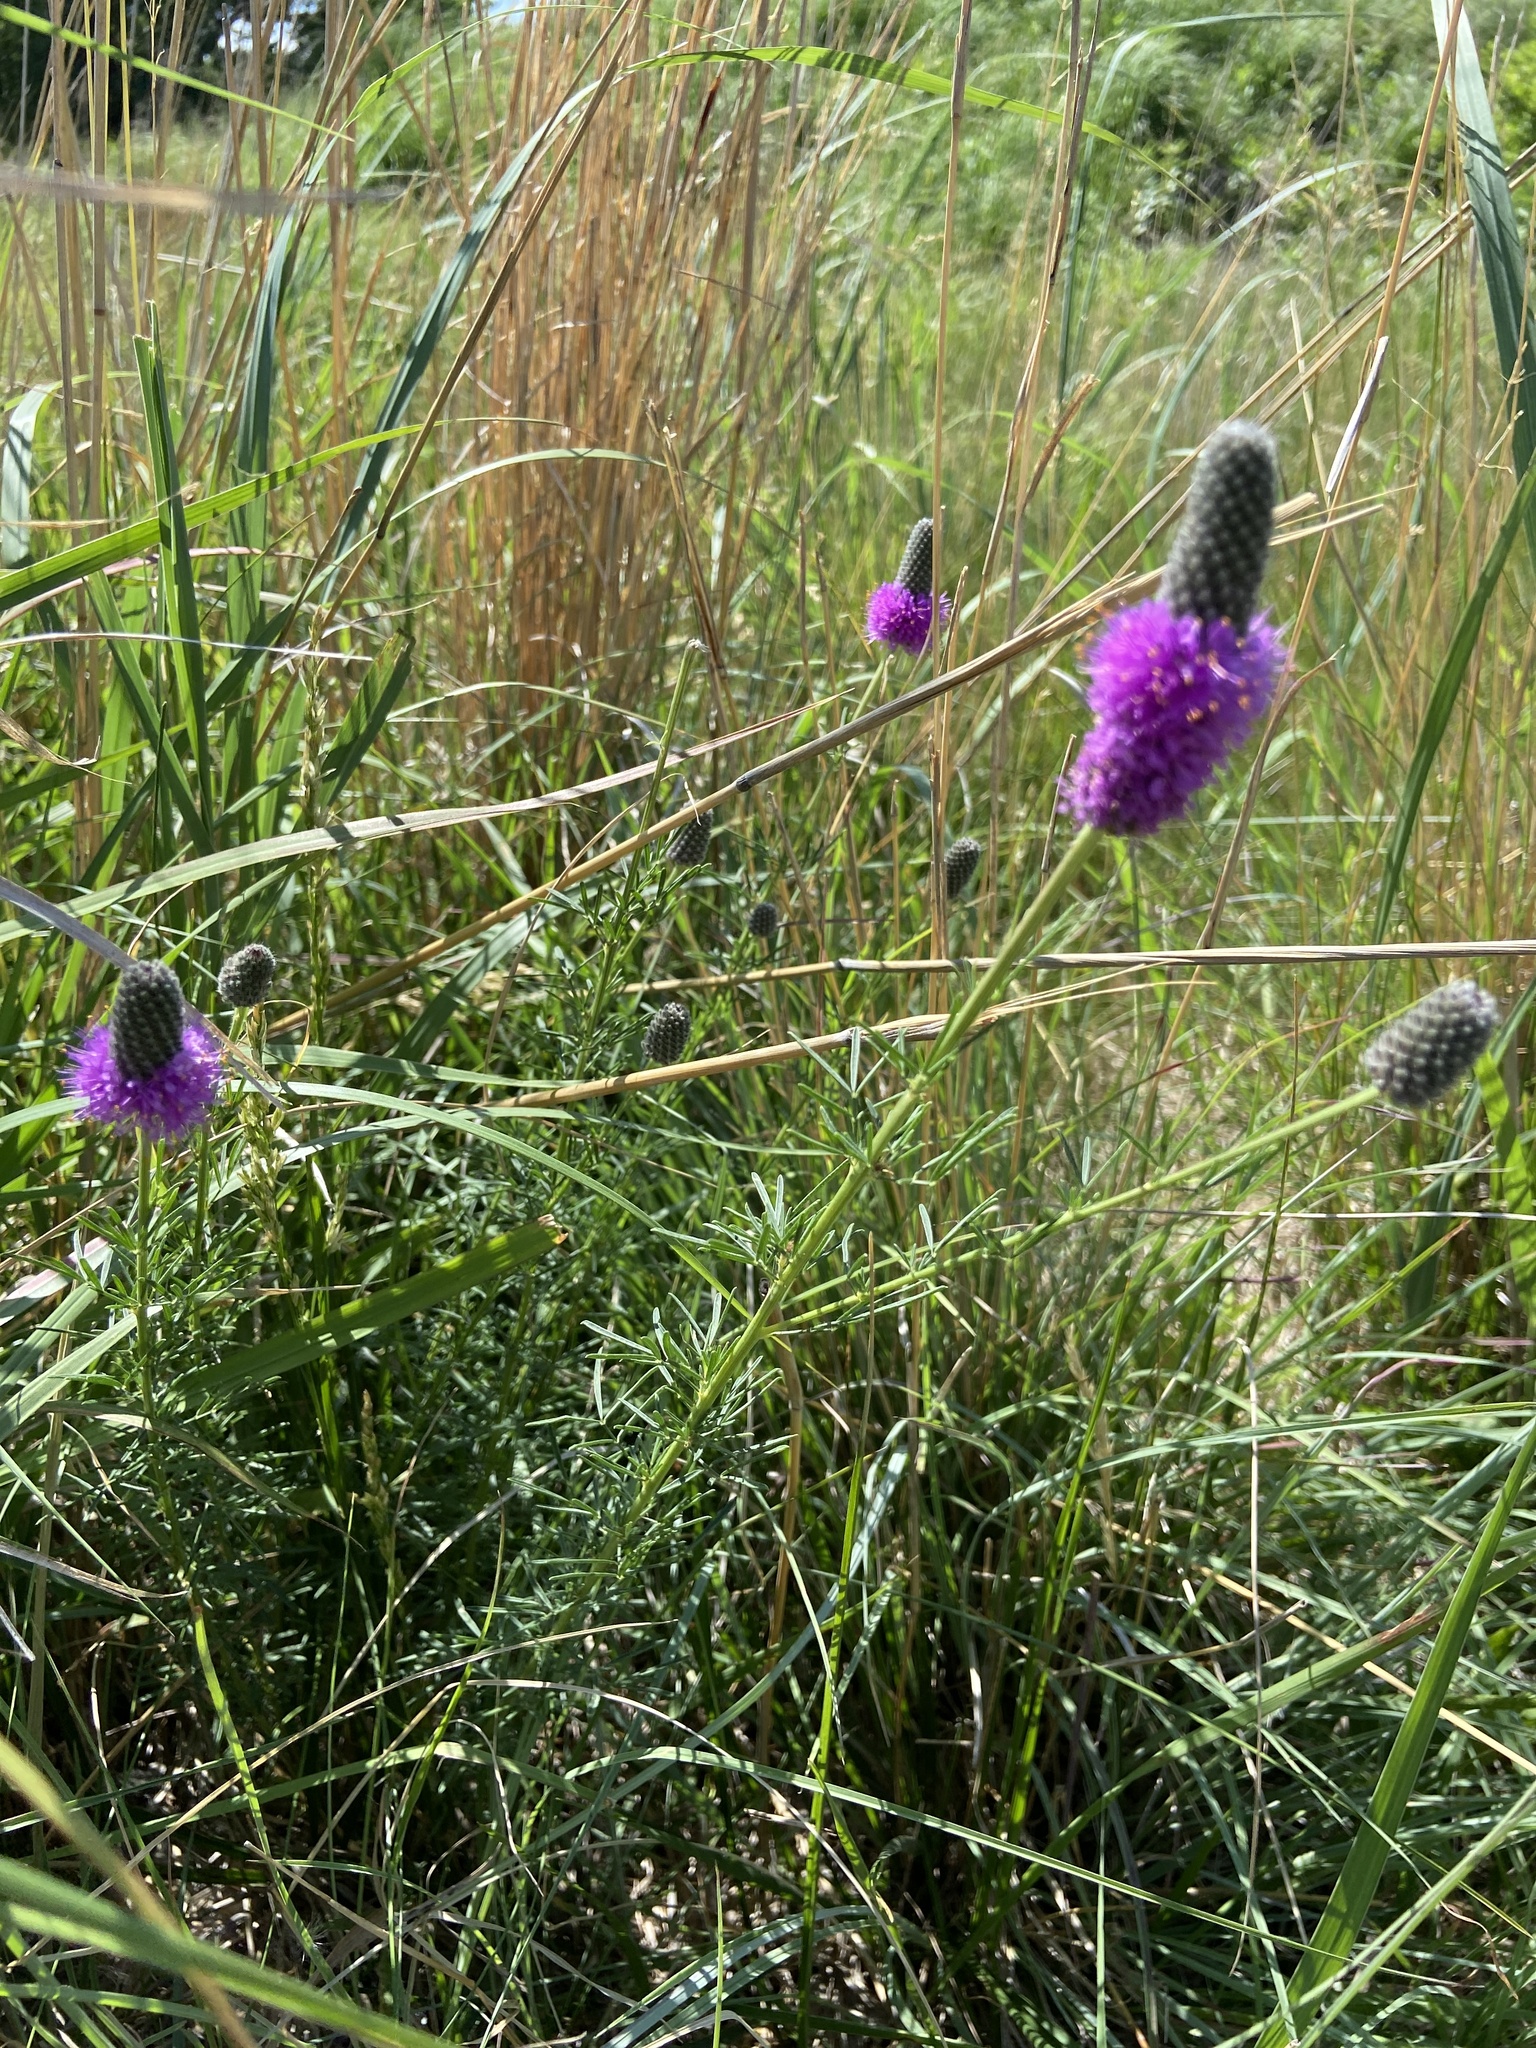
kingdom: Plantae
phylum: Tracheophyta
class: Magnoliopsida
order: Fabales
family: Fabaceae
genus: Dalea
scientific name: Dalea purpurea
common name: Purple prairie-clover
